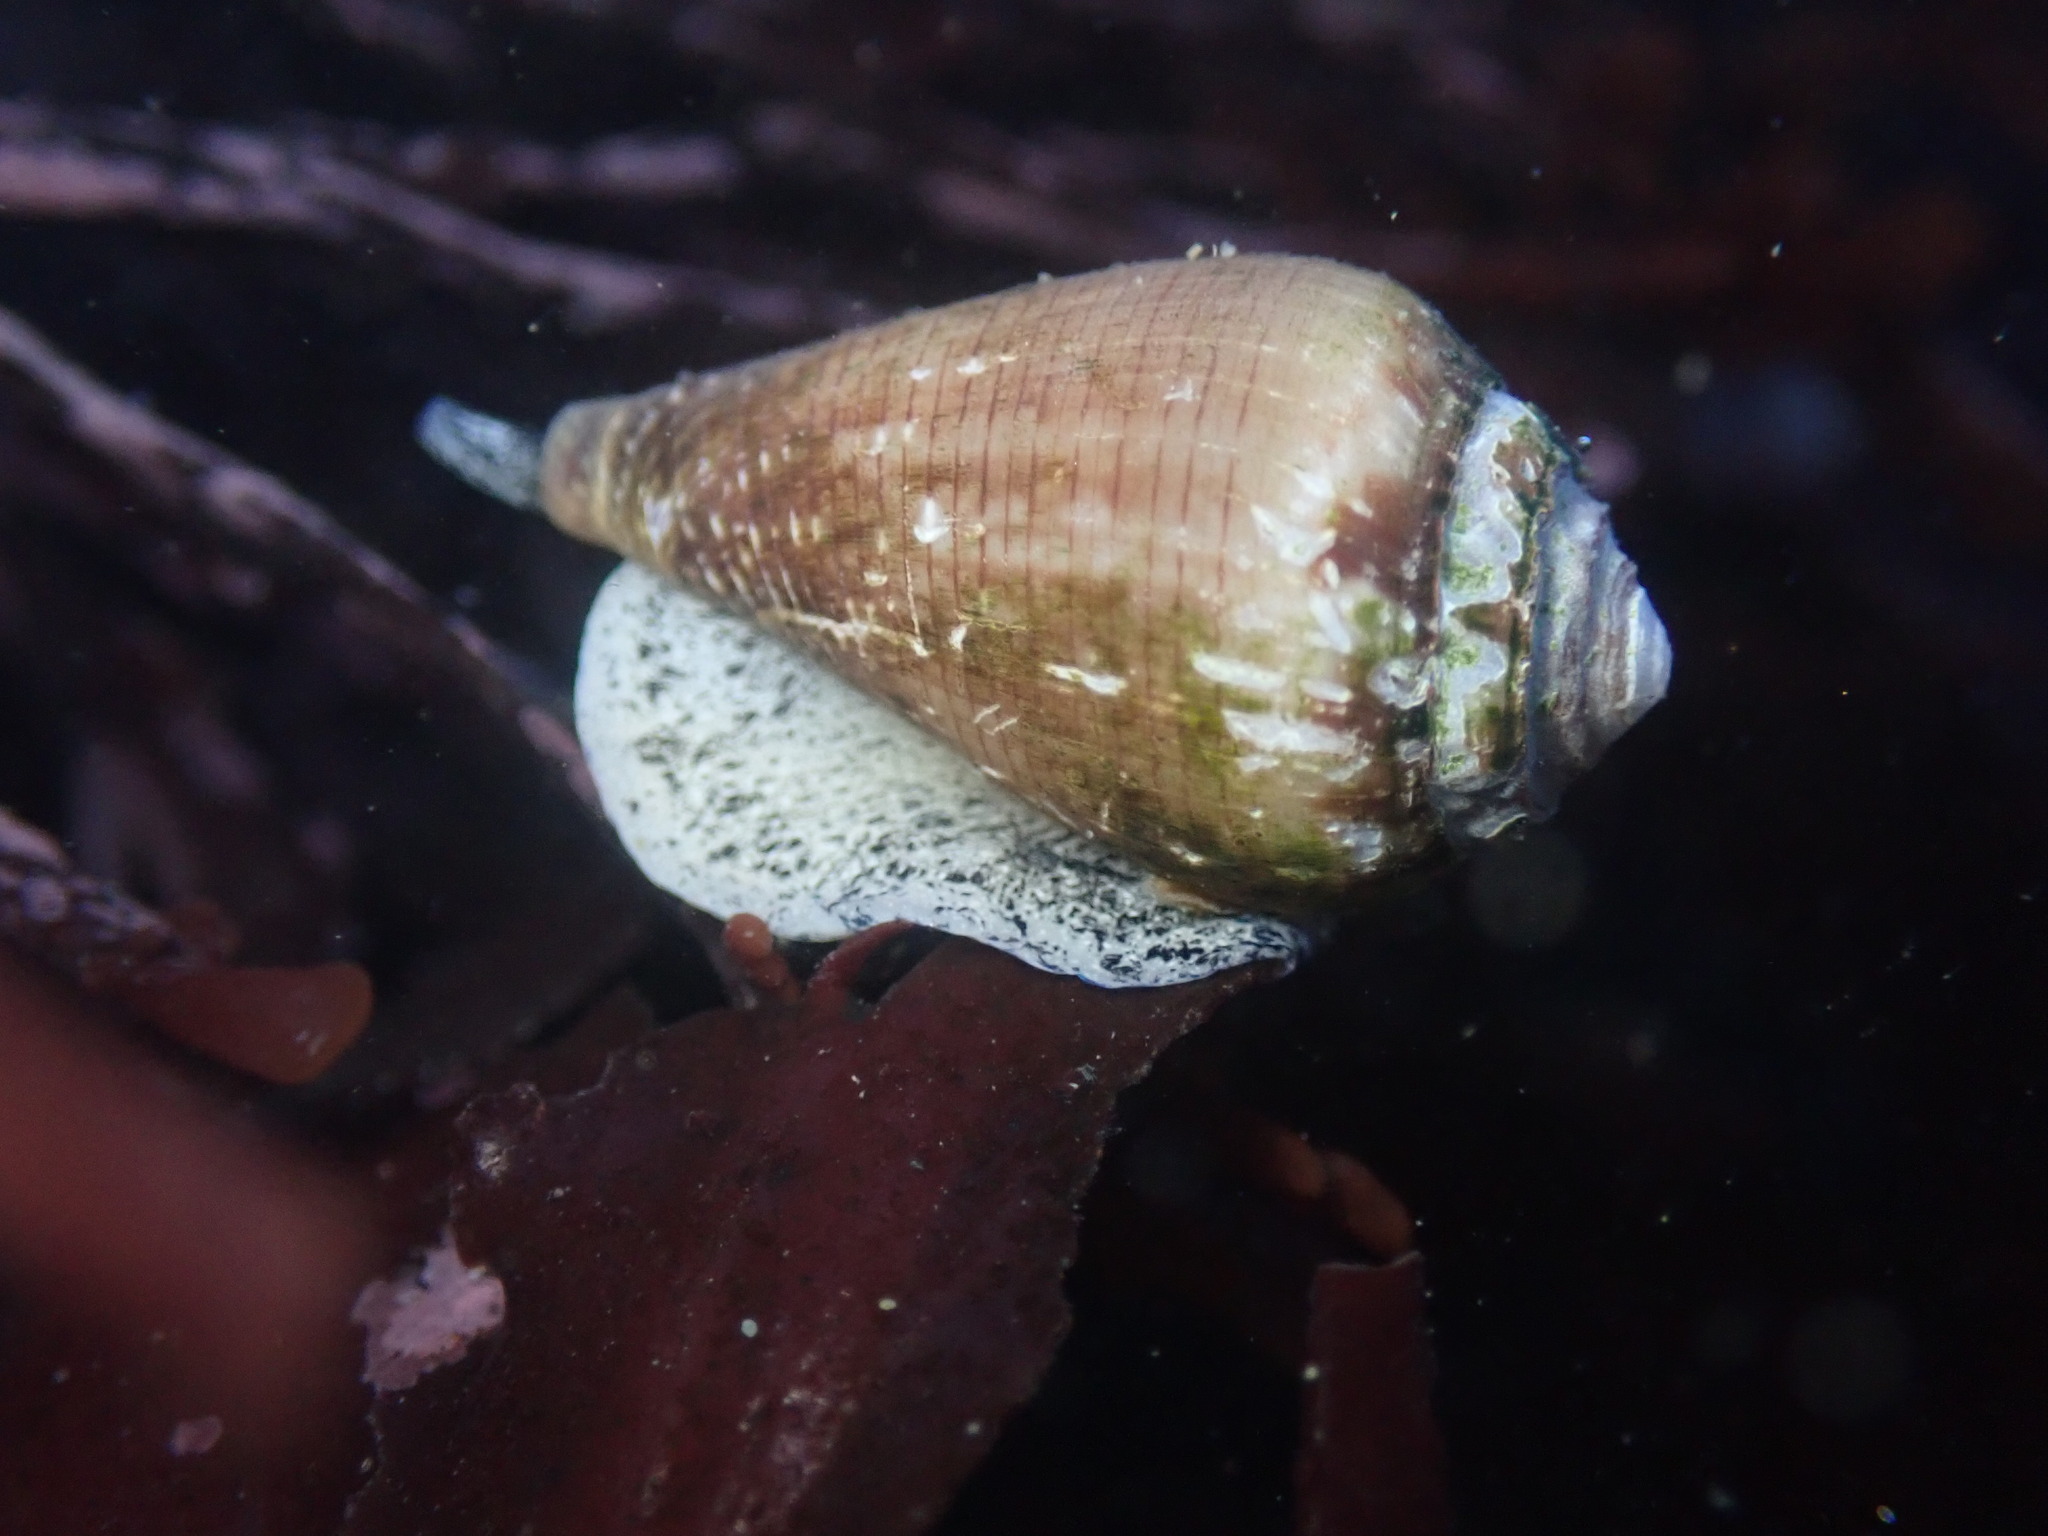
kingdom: Animalia
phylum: Mollusca
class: Gastropoda
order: Neogastropoda
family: Conidae
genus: Californiconus
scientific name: Californiconus californicus
